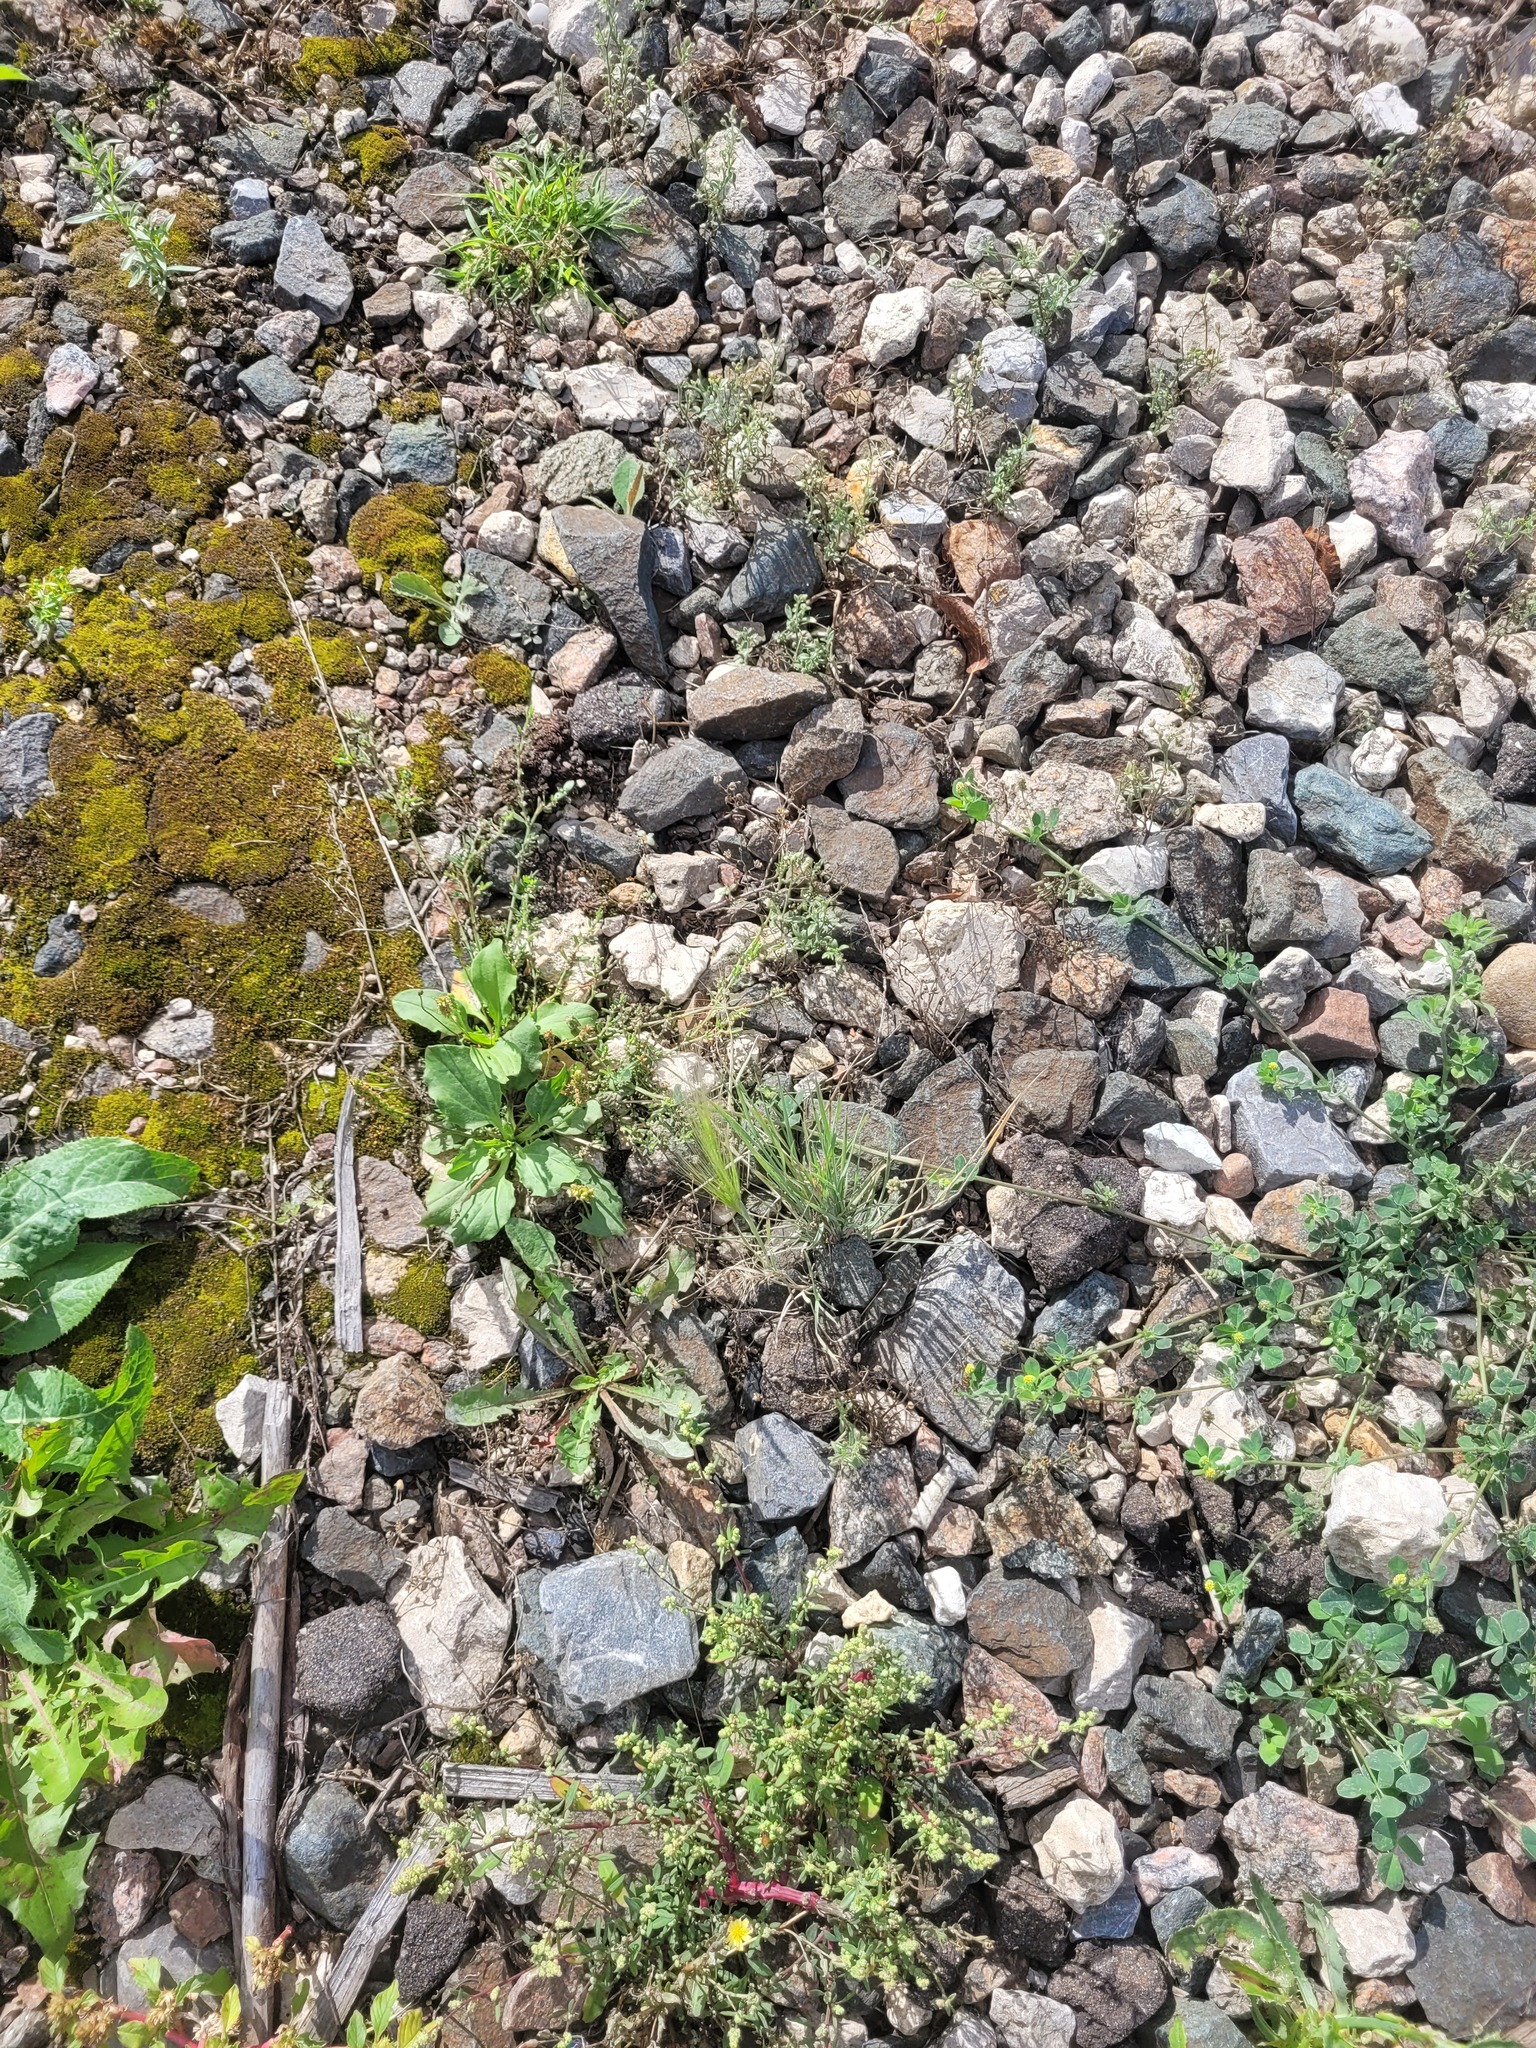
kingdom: Plantae
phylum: Tracheophyta
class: Liliopsida
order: Poales
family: Poaceae
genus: Hordeum
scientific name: Hordeum jubatum
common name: Foxtail barley
